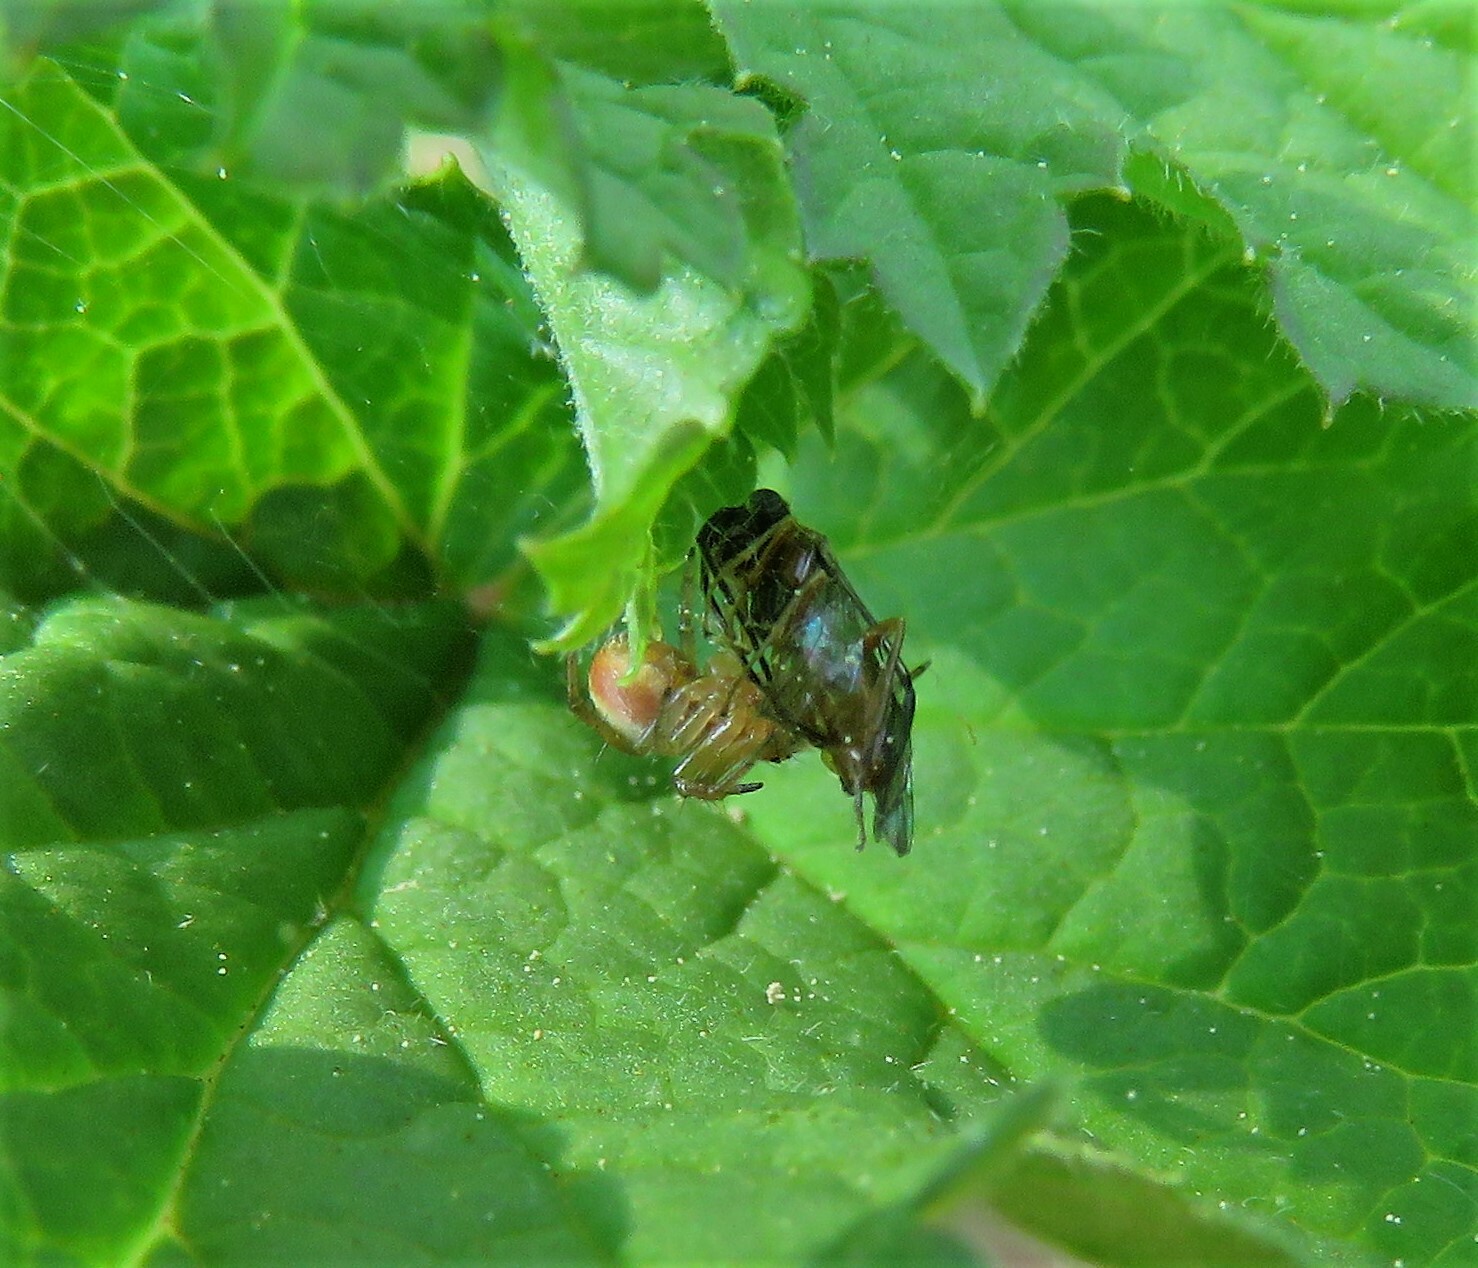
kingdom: Animalia
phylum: Arthropoda
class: Arachnida
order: Araneae
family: Araneidae
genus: Araniella
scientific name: Araniella displicata
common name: Sixspotted orb weaver
